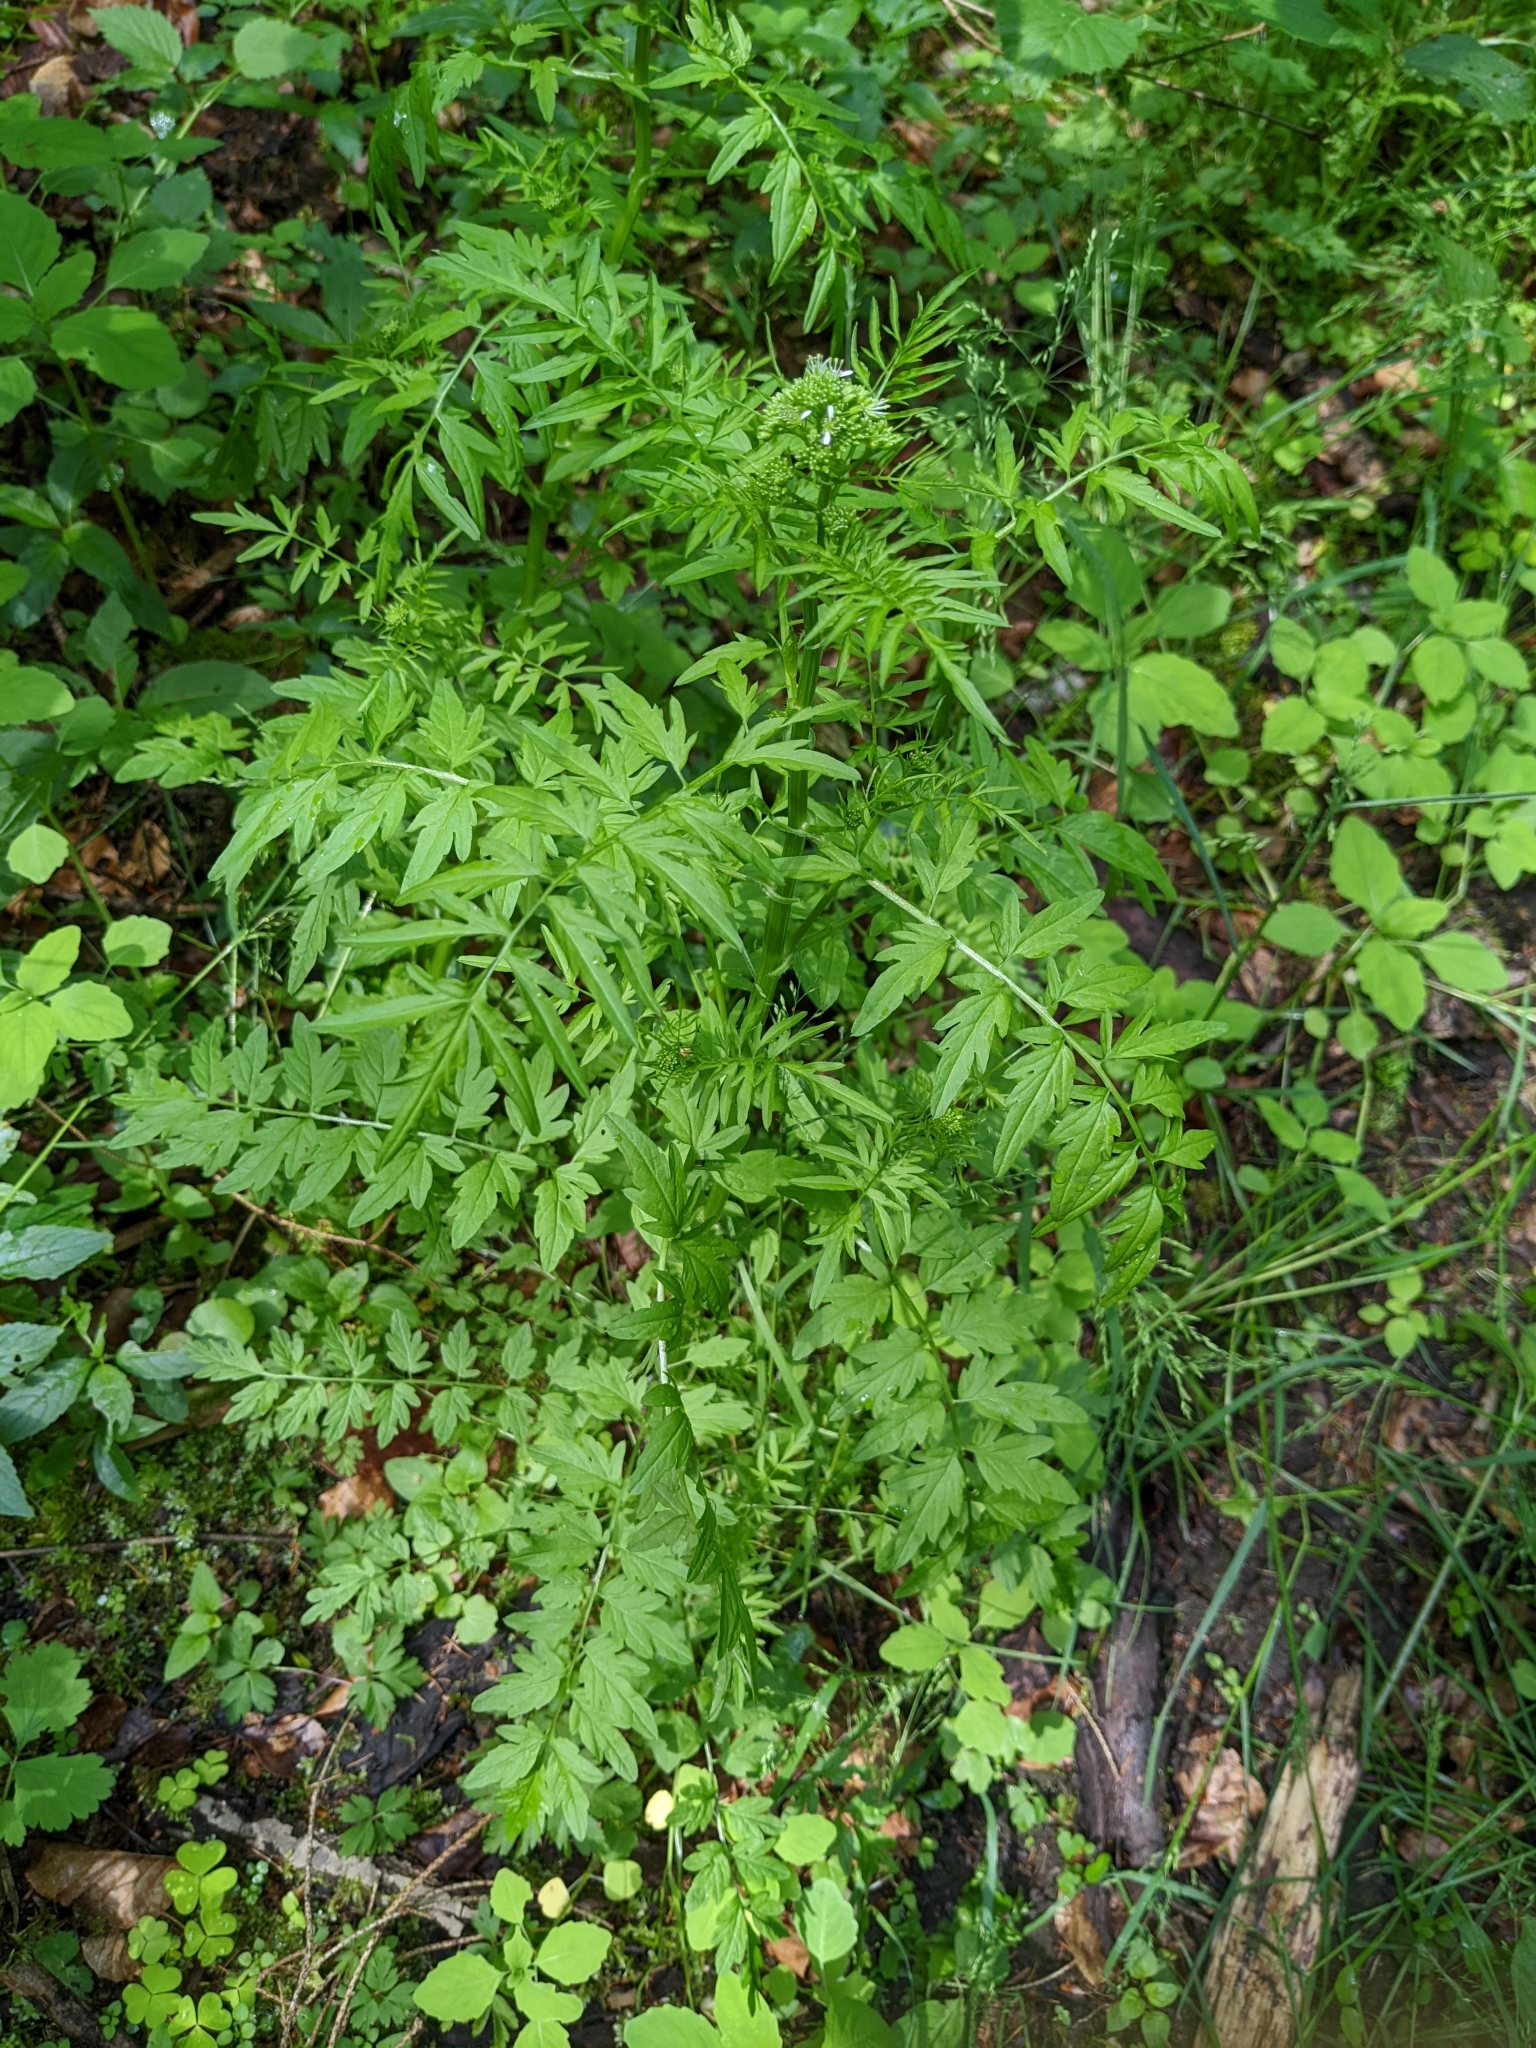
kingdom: Plantae
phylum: Tracheophyta
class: Magnoliopsida
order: Brassicales
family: Brassicaceae
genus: Cardamine
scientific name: Cardamine impatiens
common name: Narrow-leaved bitter-cress
